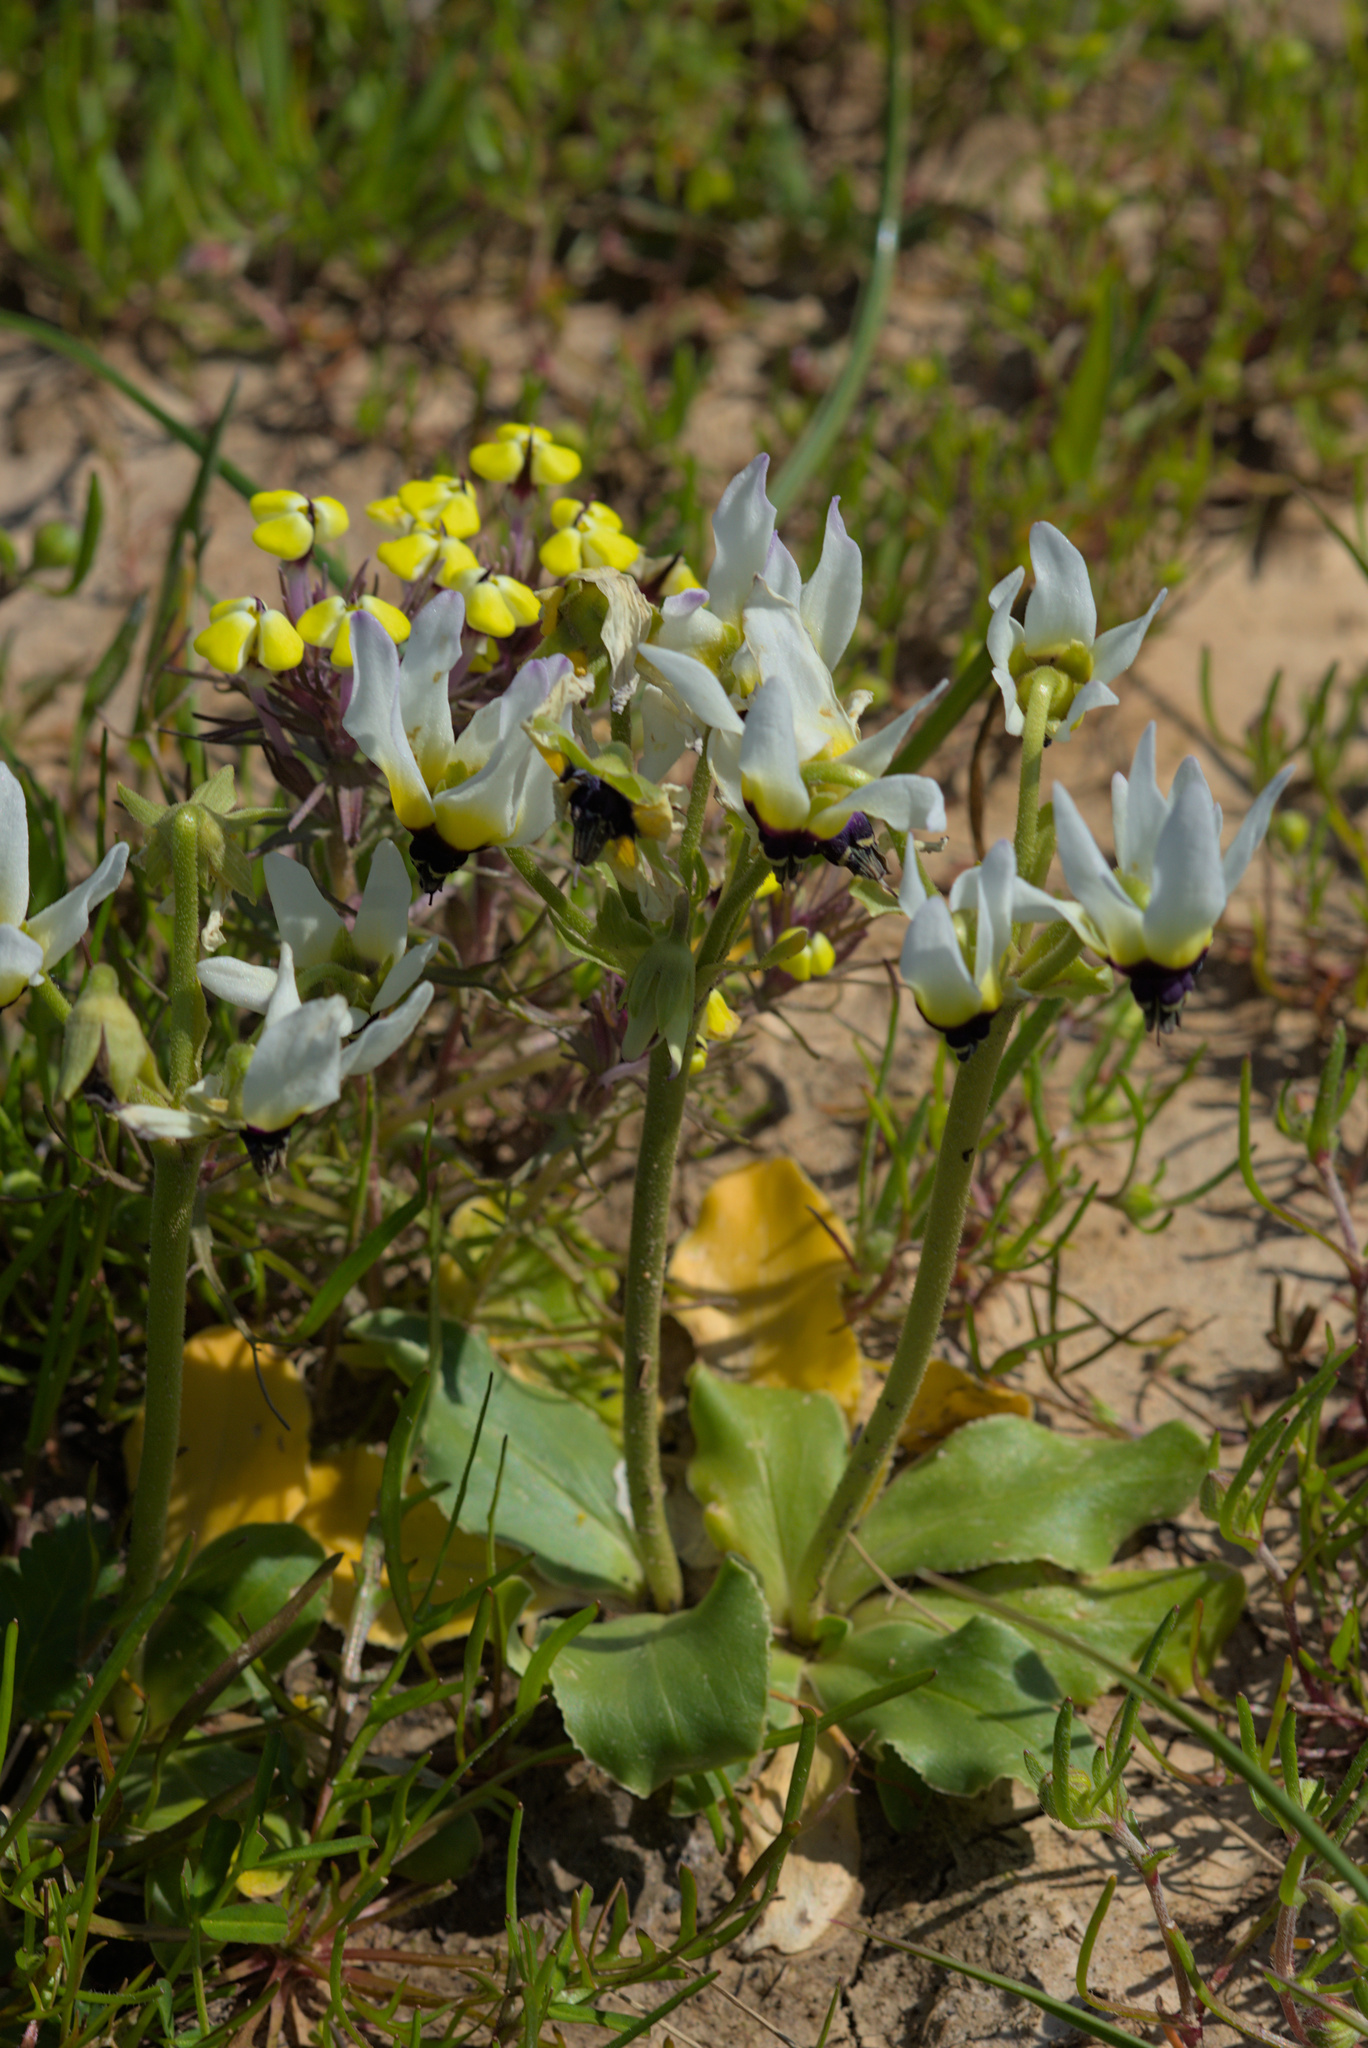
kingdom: Plantae
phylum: Tracheophyta
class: Magnoliopsida
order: Ericales
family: Primulaceae
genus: Dodecatheon
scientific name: Dodecatheon clevelandii
